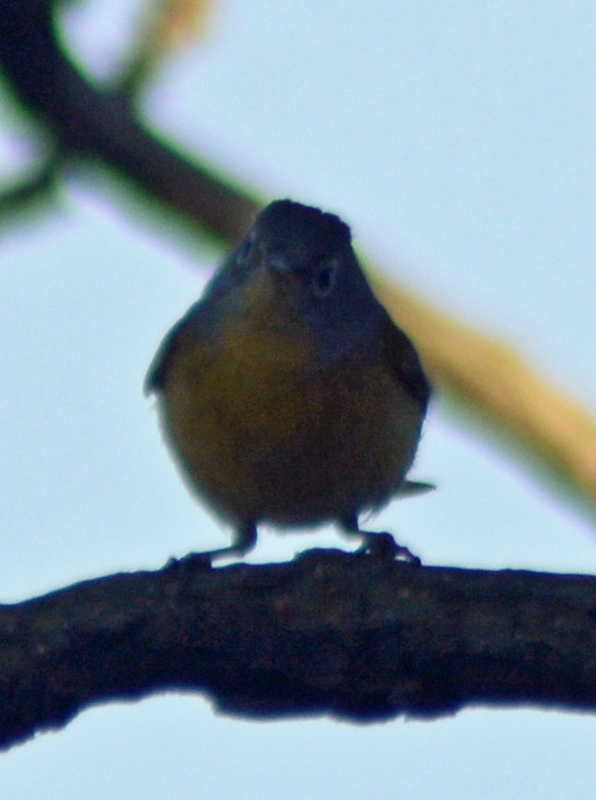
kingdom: Animalia
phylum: Chordata
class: Aves
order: Passeriformes
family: Parulidae
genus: Leiothlypis
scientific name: Leiothlypis ruficapilla
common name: Nashville warbler
